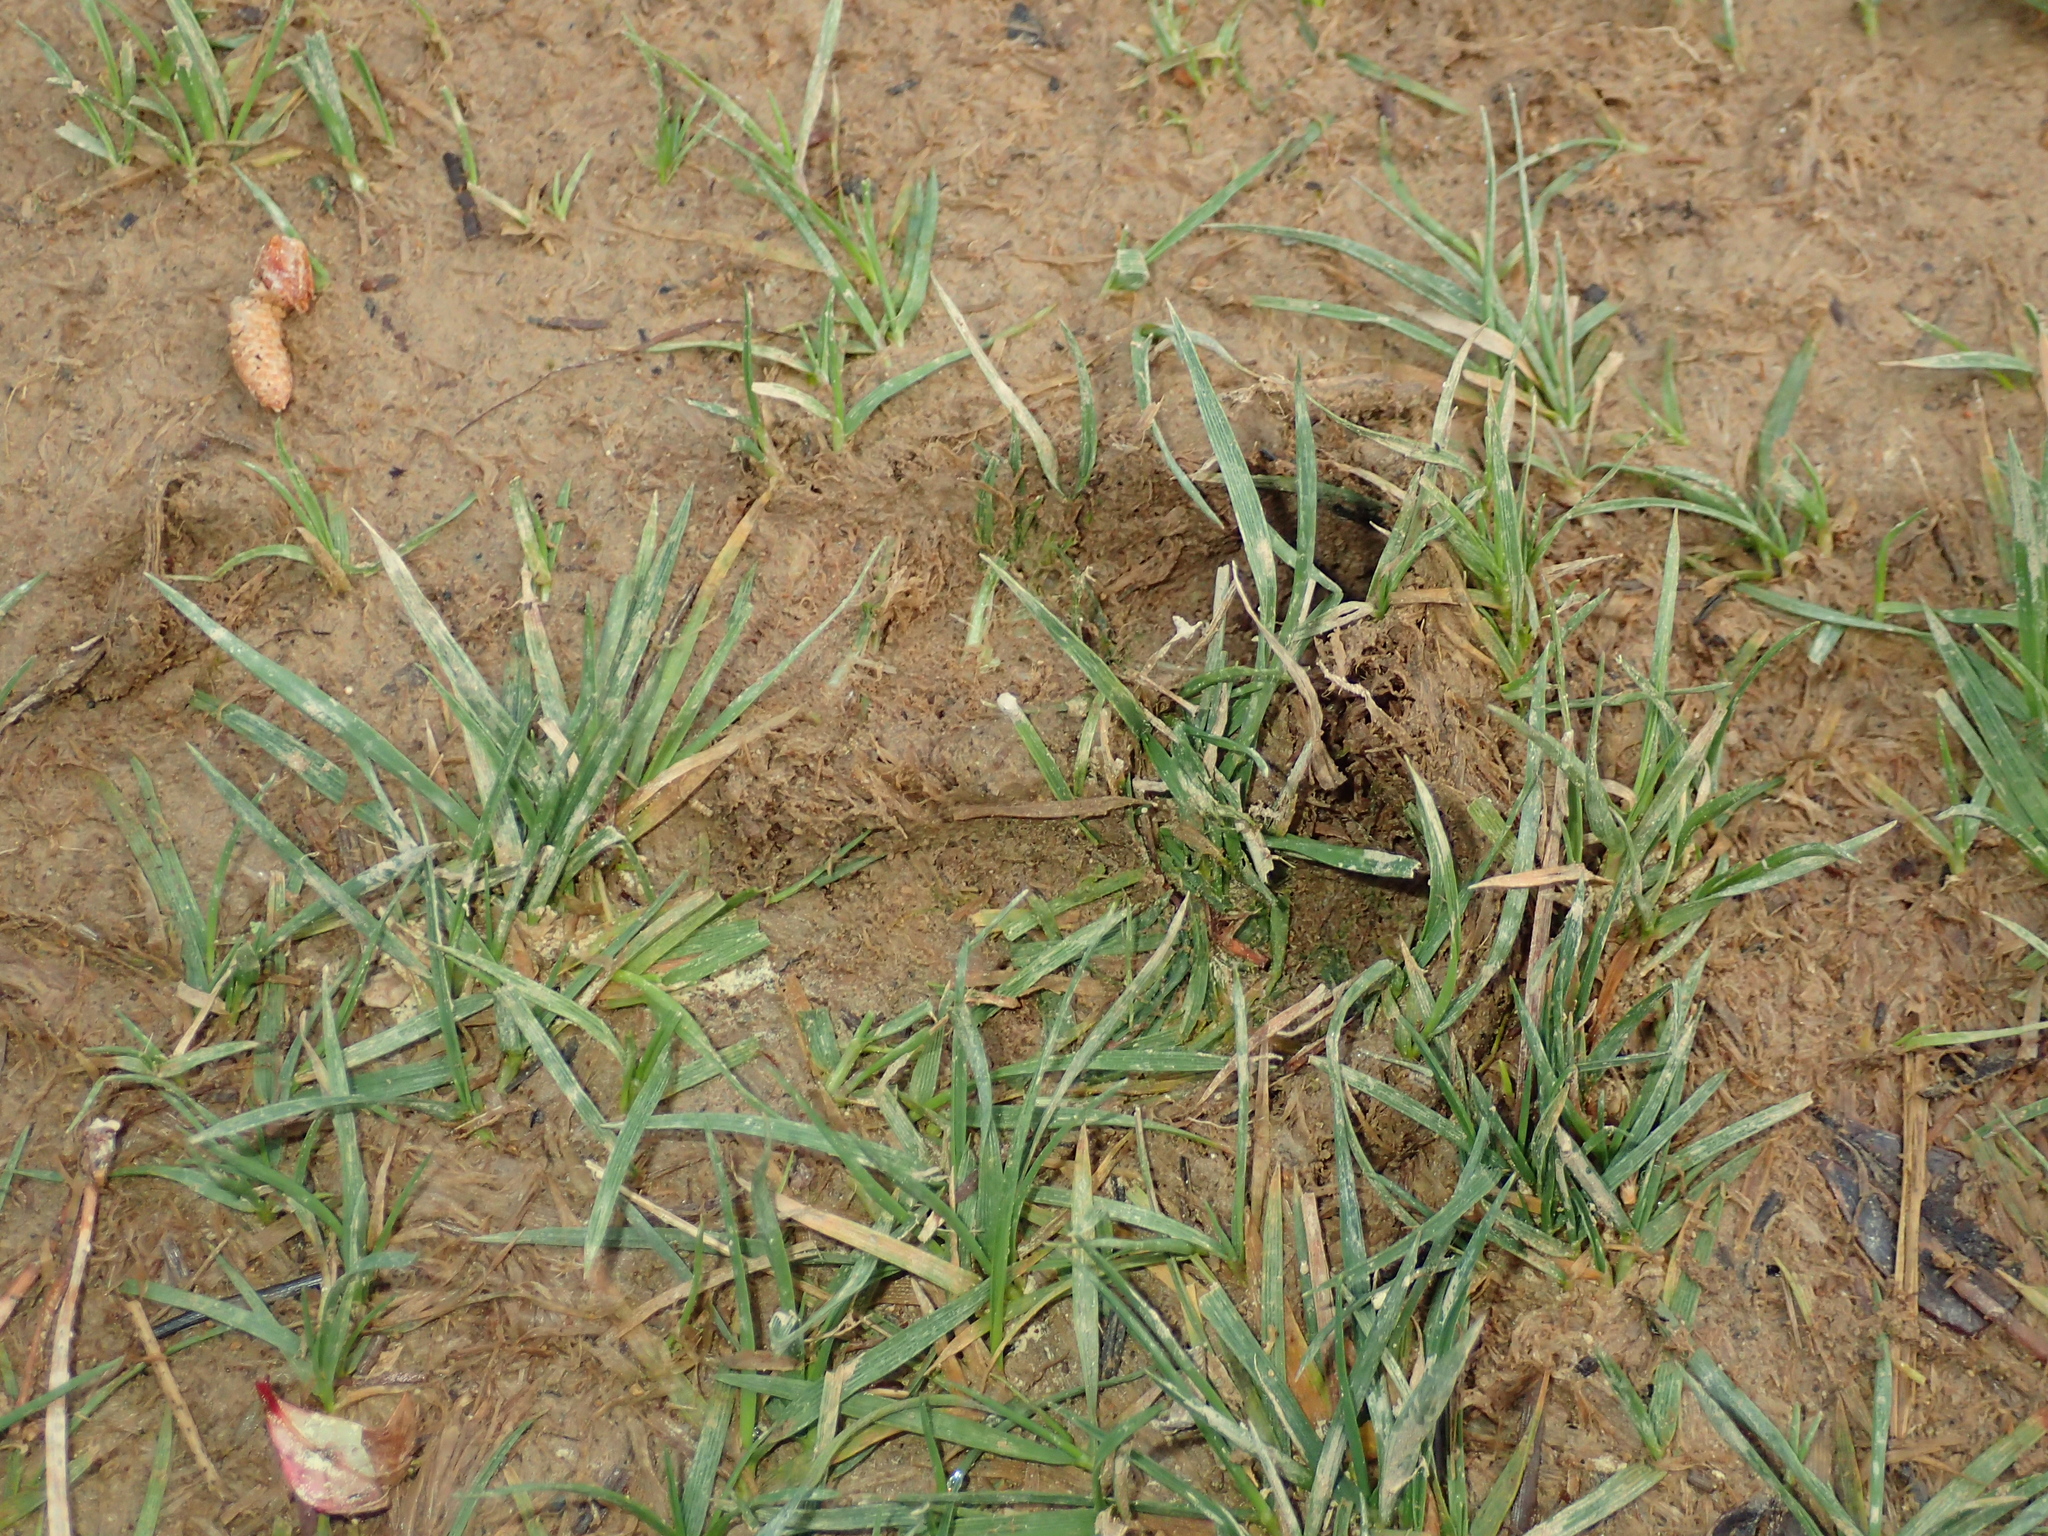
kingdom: Animalia
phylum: Chordata
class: Mammalia
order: Artiodactyla
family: Bovidae
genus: Capra
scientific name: Capra hircus
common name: Domestic goat
